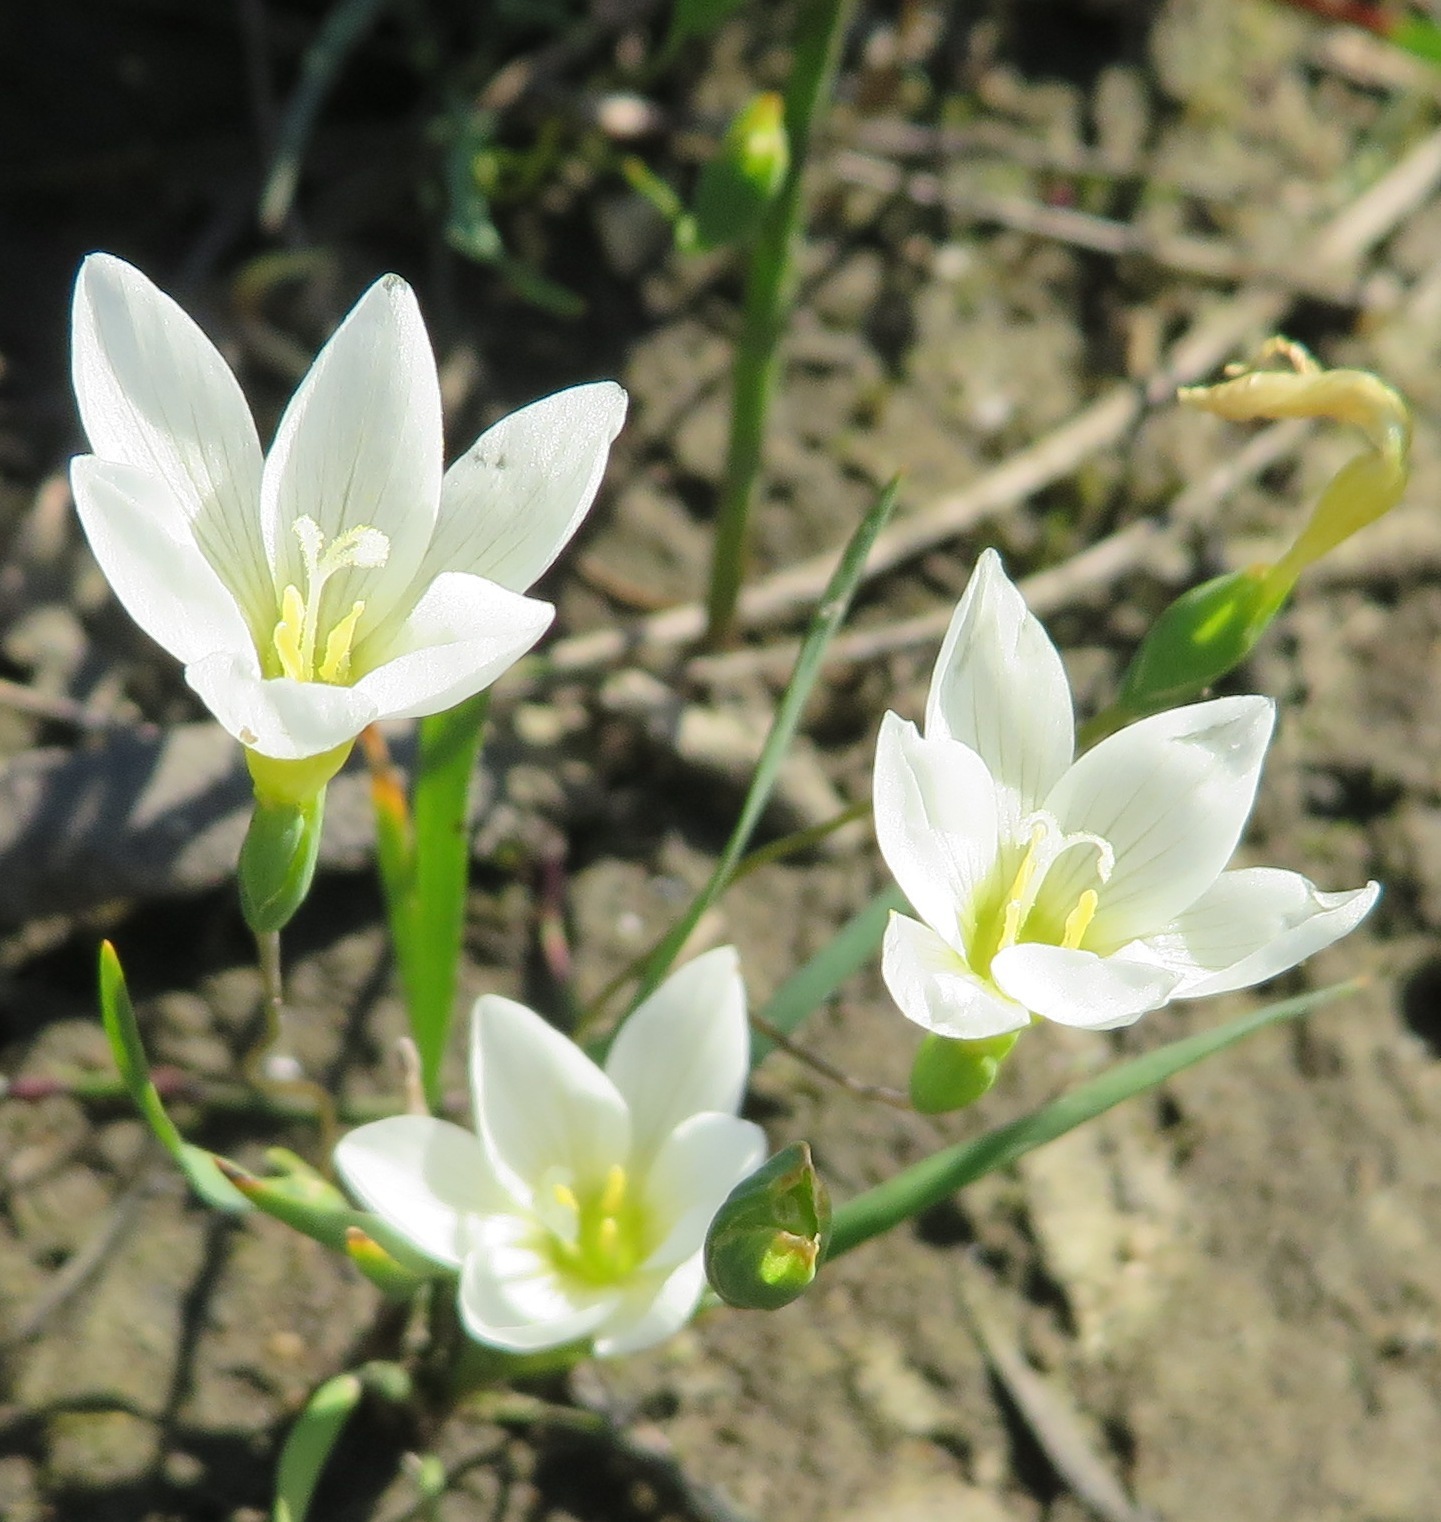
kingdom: Plantae
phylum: Tracheophyta
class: Liliopsida
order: Asparagales
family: Iridaceae
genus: Geissorhiza
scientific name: Geissorhiza setacea
